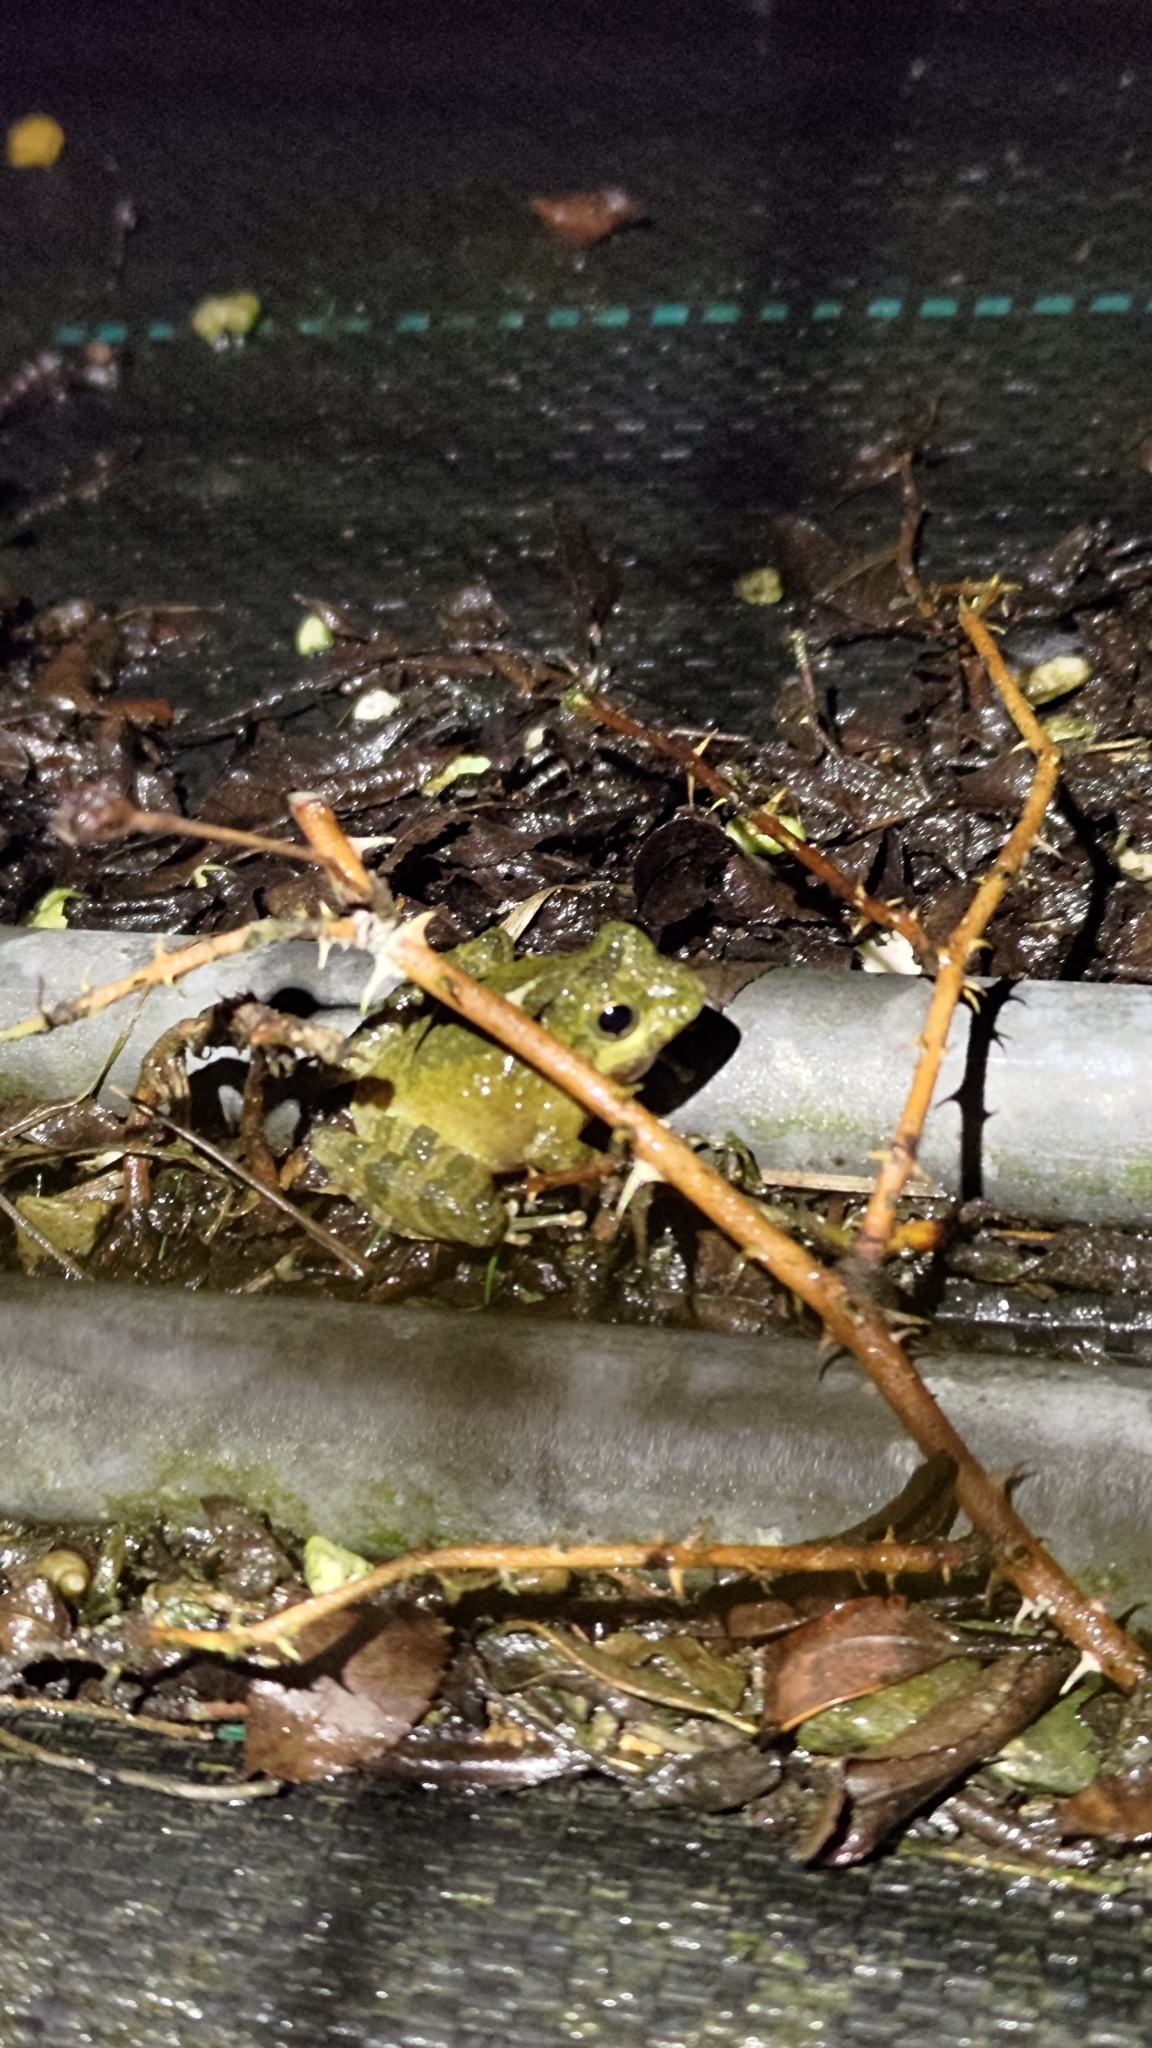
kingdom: Animalia
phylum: Chordata
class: Amphibia
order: Anura
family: Rhacophoridae
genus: Buergeria
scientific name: Buergeria choui
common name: Yaeyama kajika frog
